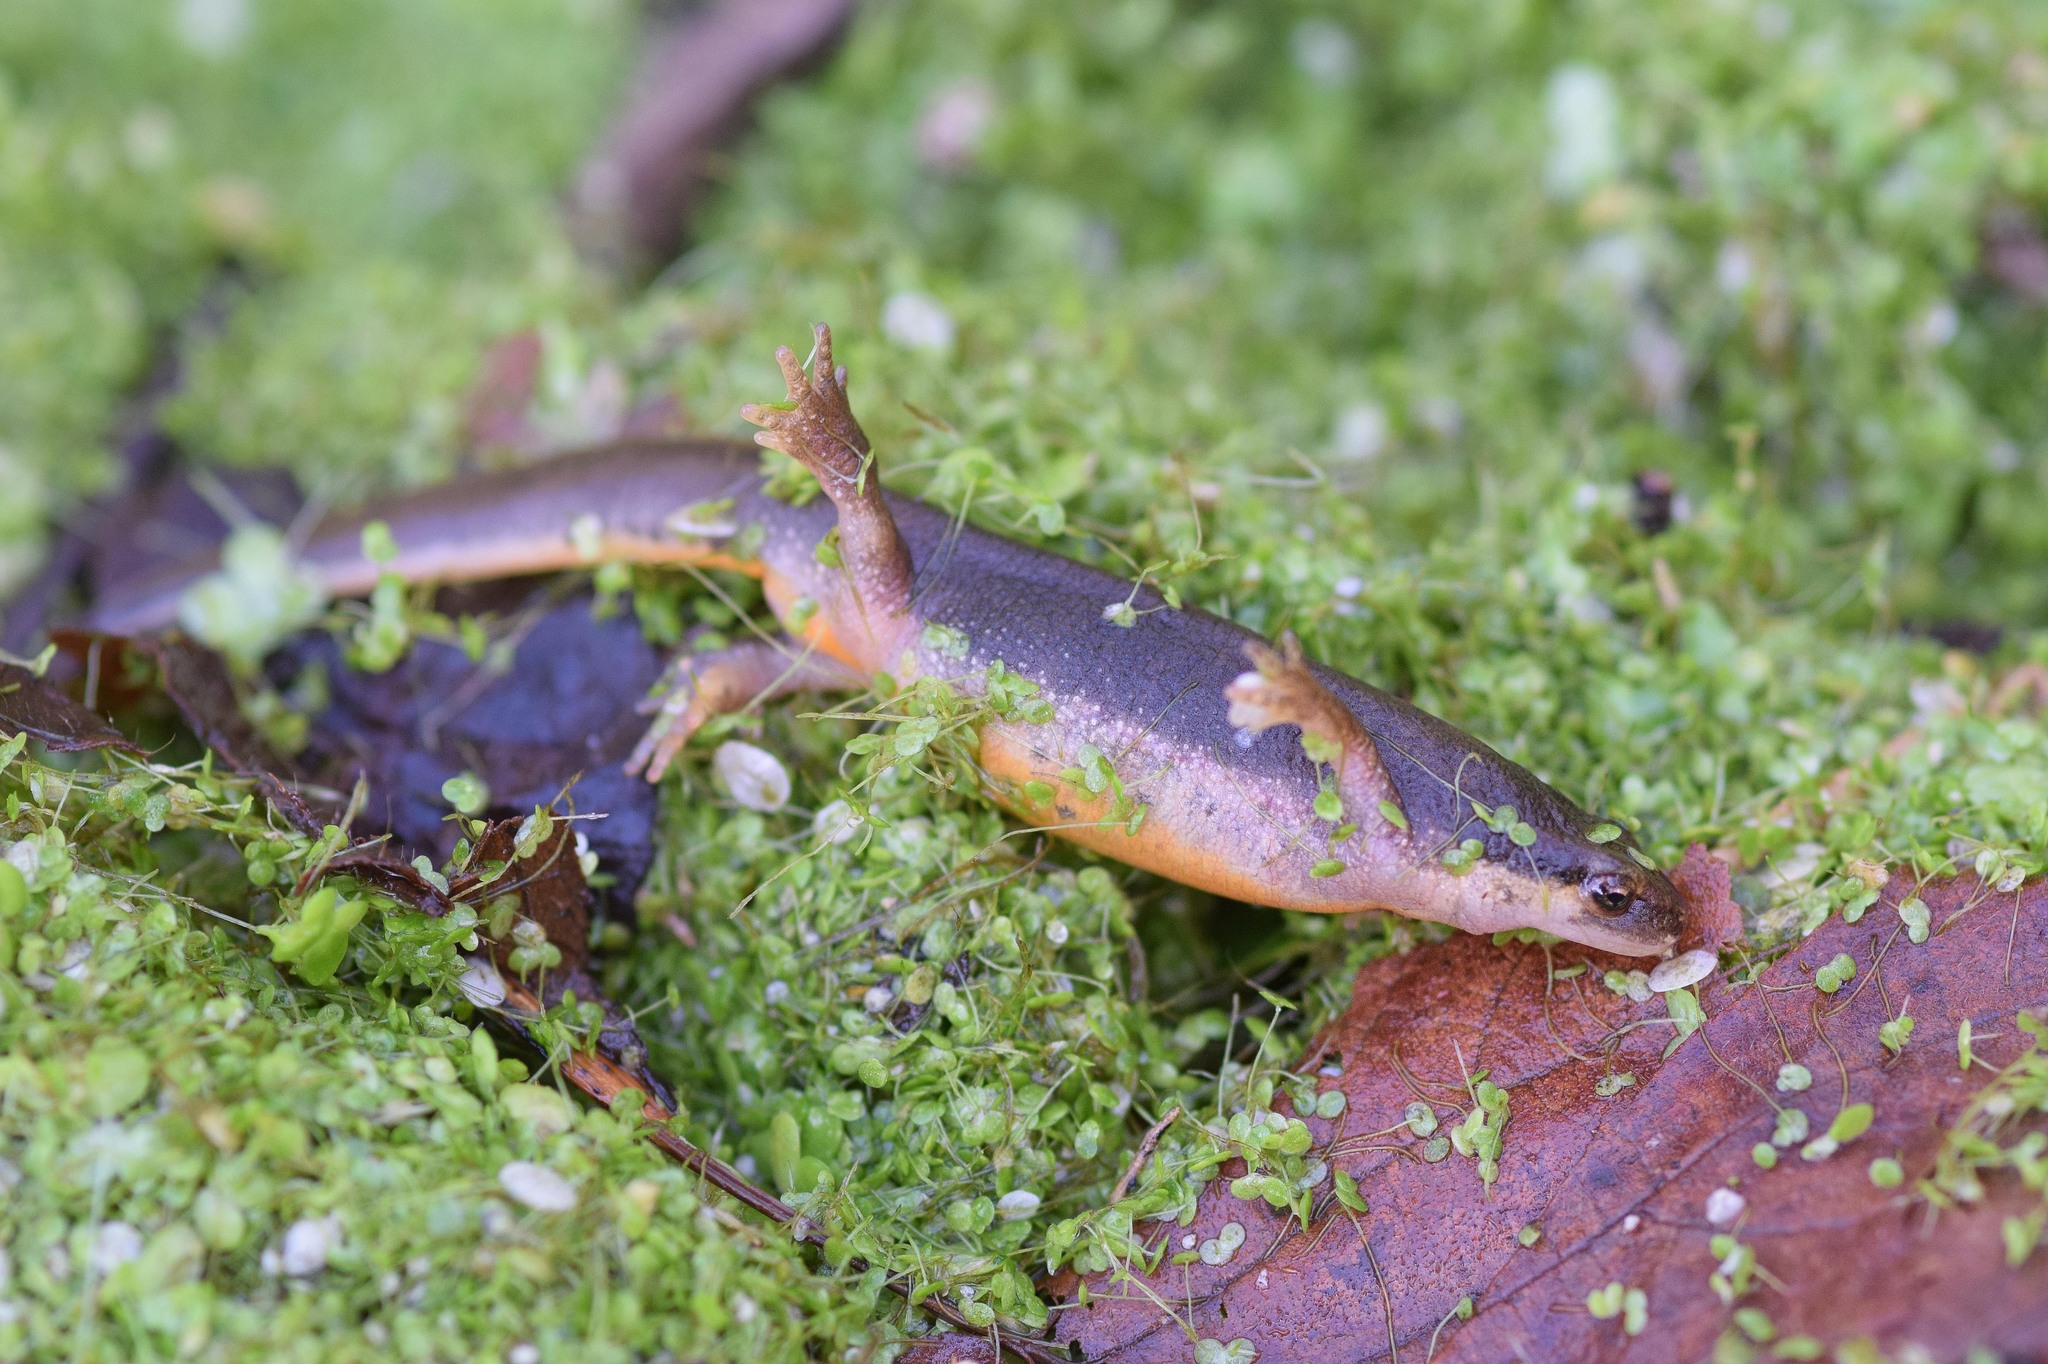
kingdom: Animalia
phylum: Chordata
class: Amphibia
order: Caudata
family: Salamandridae
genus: Lissotriton
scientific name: Lissotriton helveticus
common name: Palmate newt
